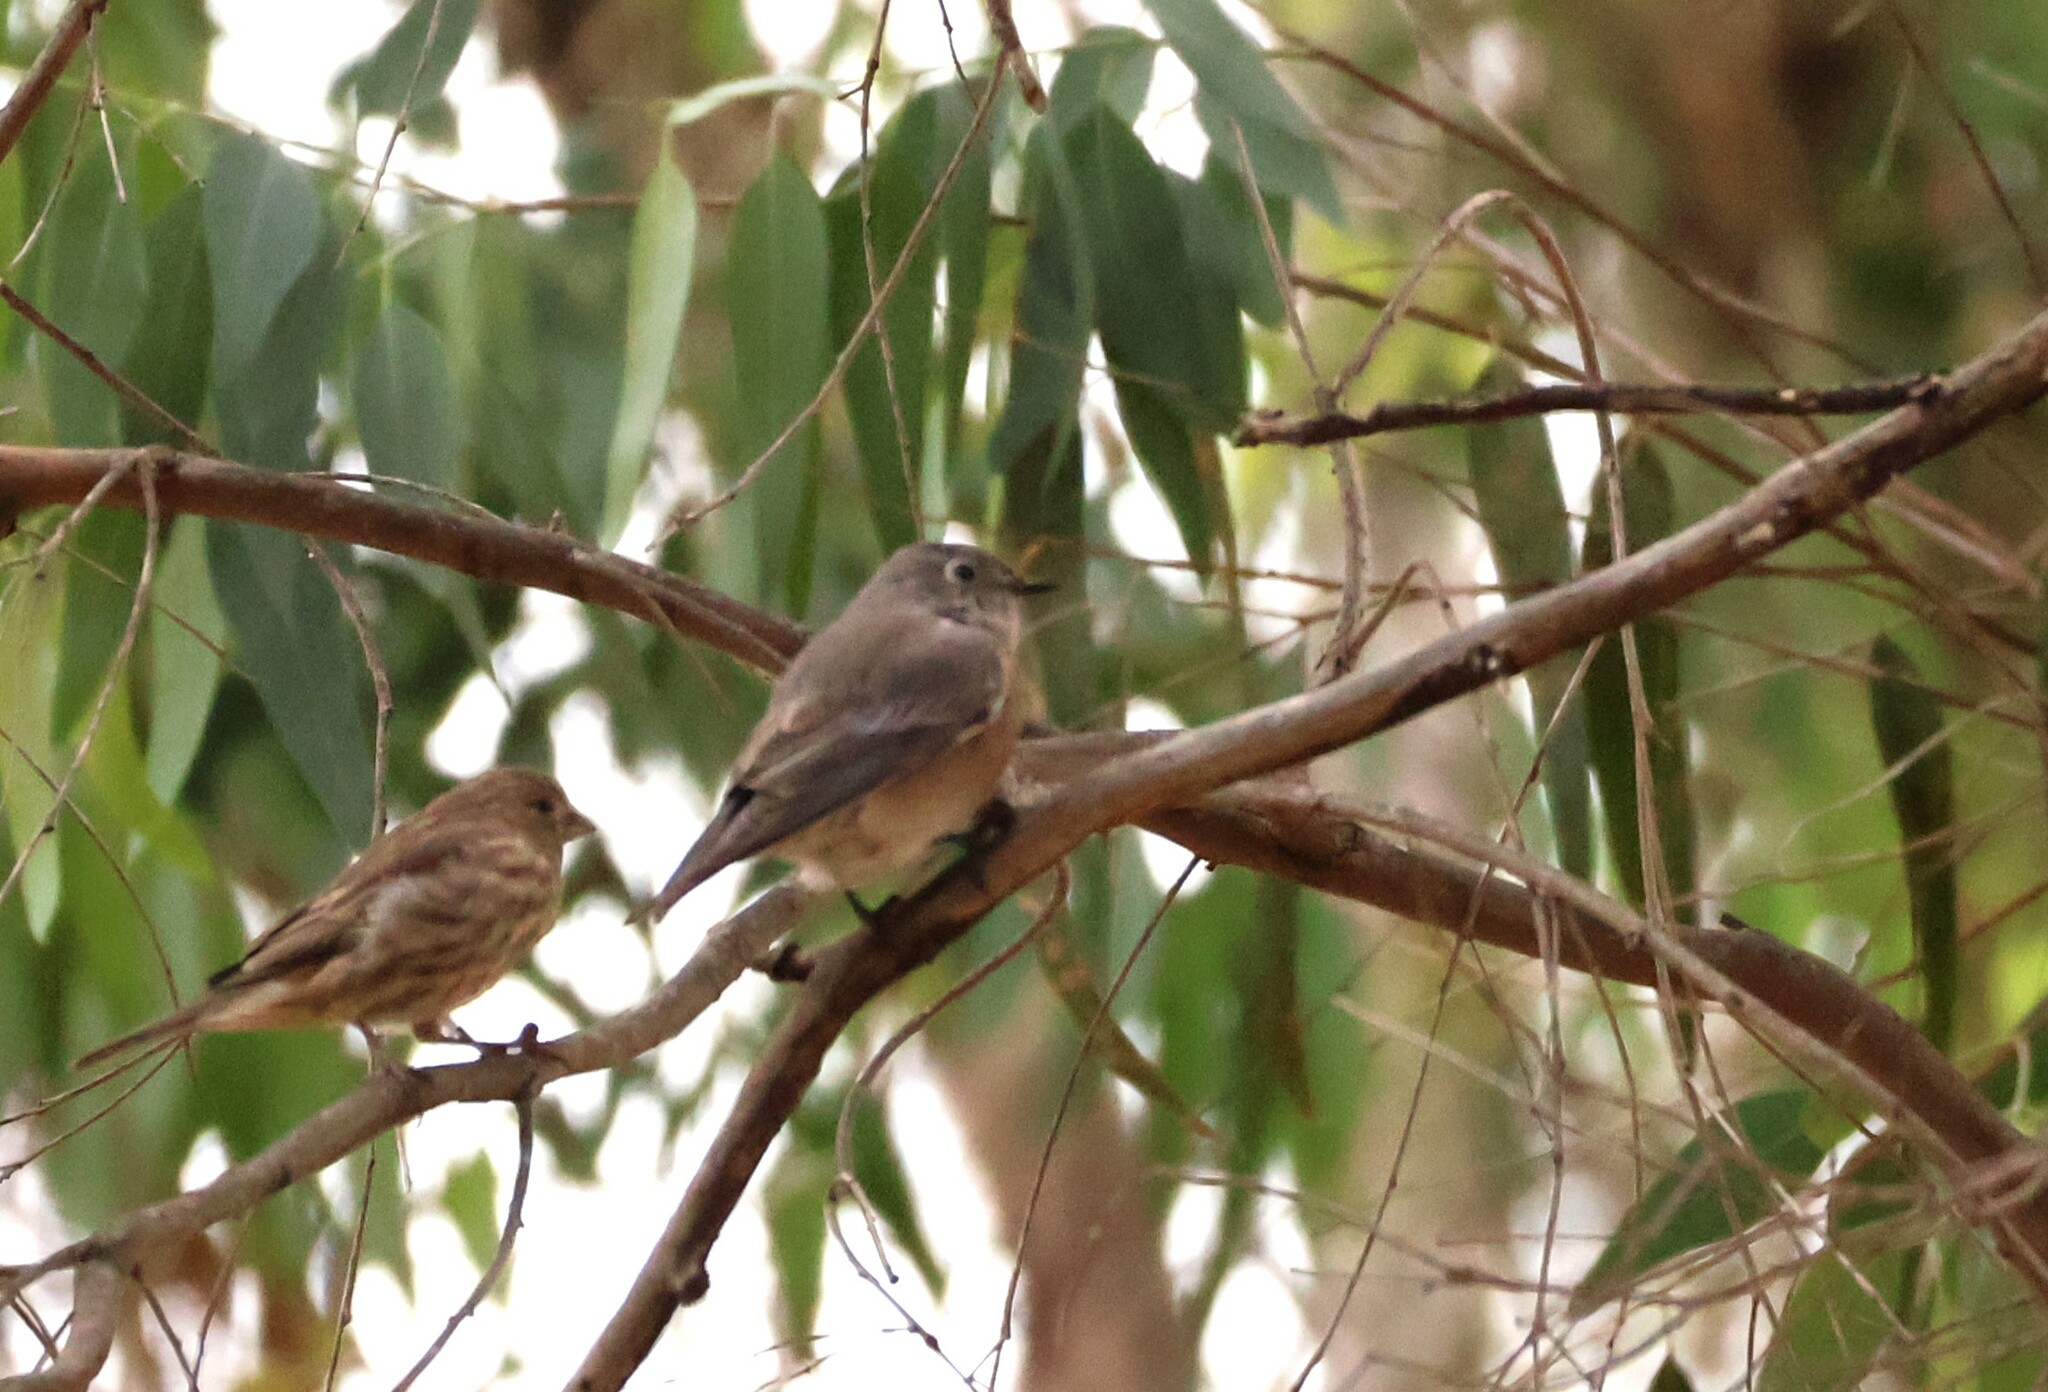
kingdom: Animalia
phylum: Chordata
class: Aves
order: Passeriformes
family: Turdidae
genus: Sialia
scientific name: Sialia mexicana
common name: Western bluebird
